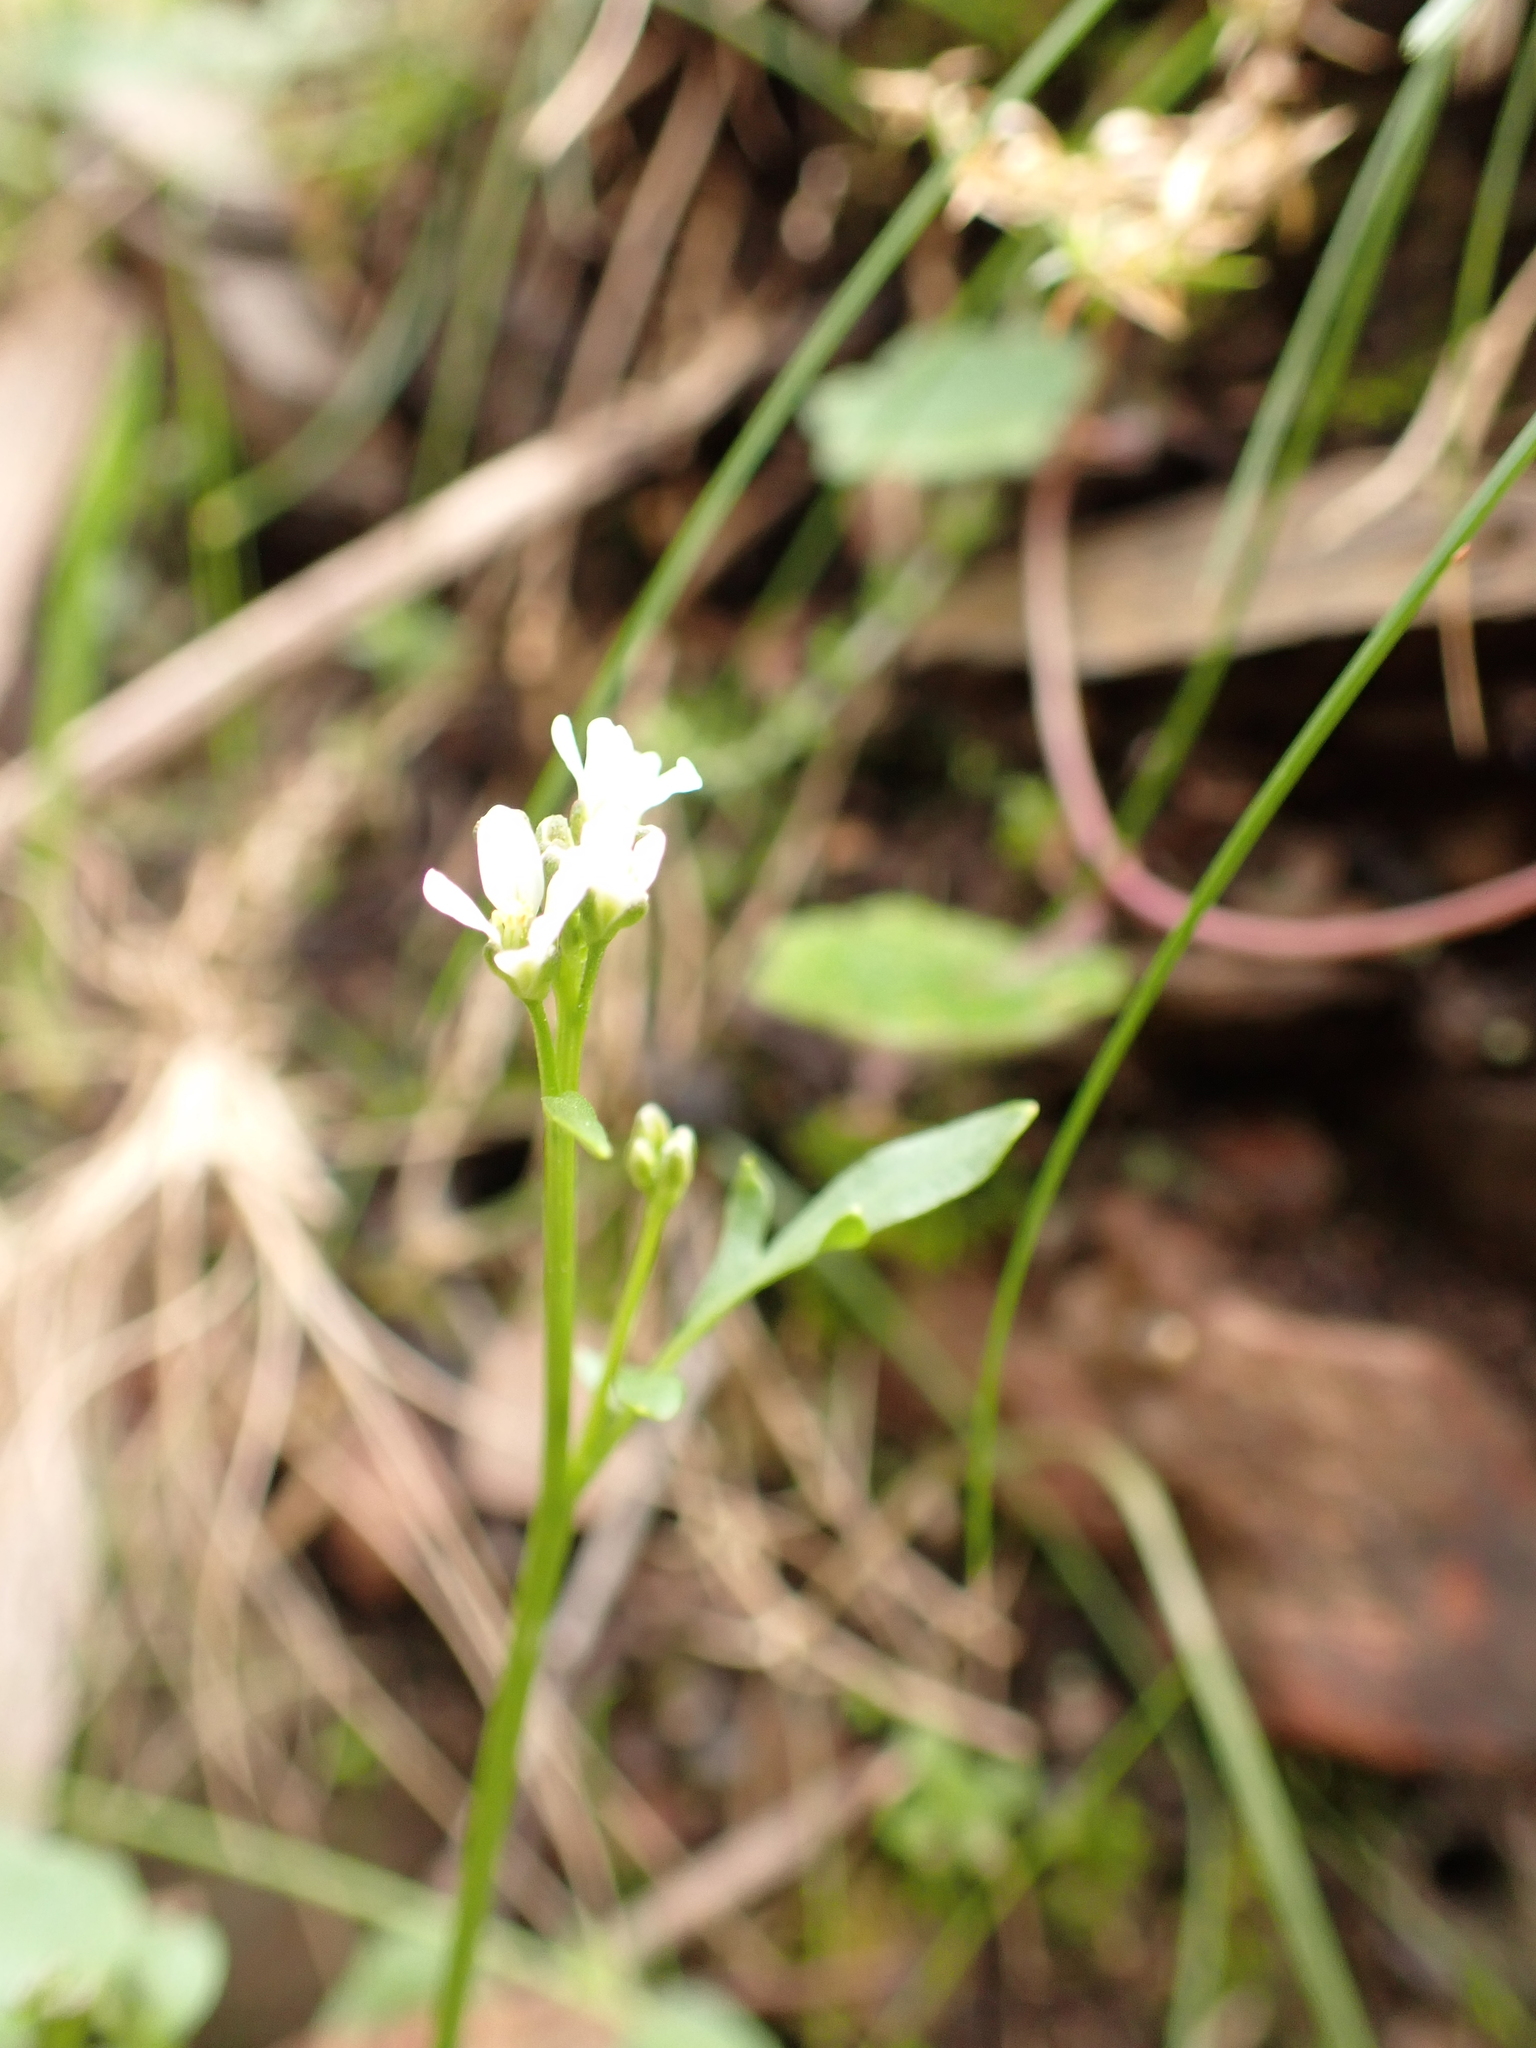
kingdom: Plantae
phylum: Tracheophyta
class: Magnoliopsida
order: Brassicales
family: Brassicaceae
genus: Cardamine
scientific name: Cardamine papillata
